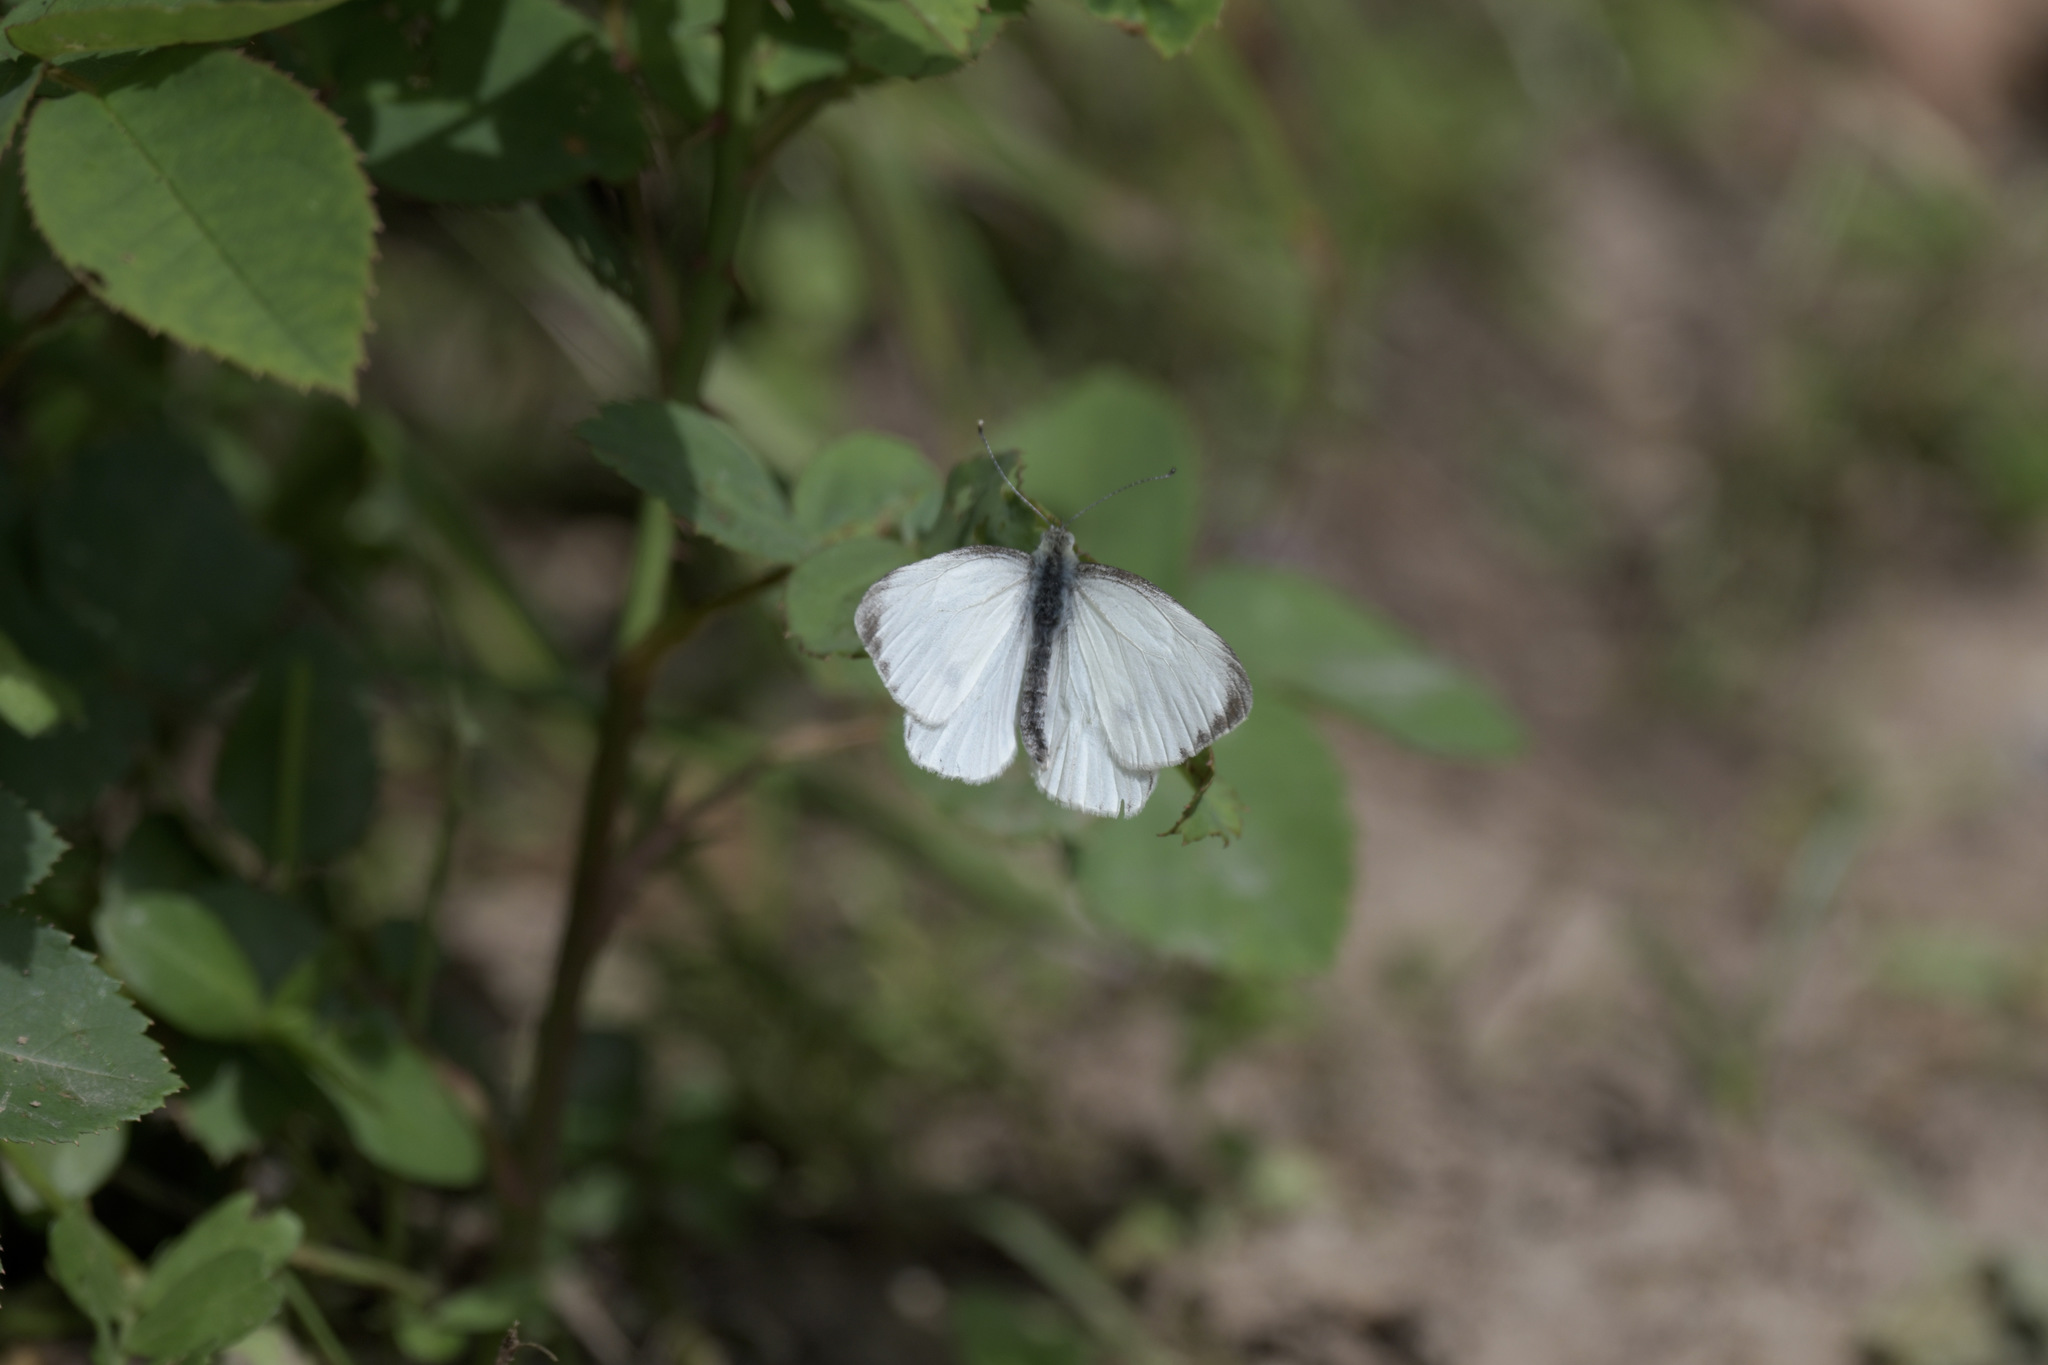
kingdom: Animalia
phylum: Arthropoda
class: Insecta
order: Lepidoptera
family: Pieridae
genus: Pieris
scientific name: Pieris canidia
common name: Indian cabbage white
